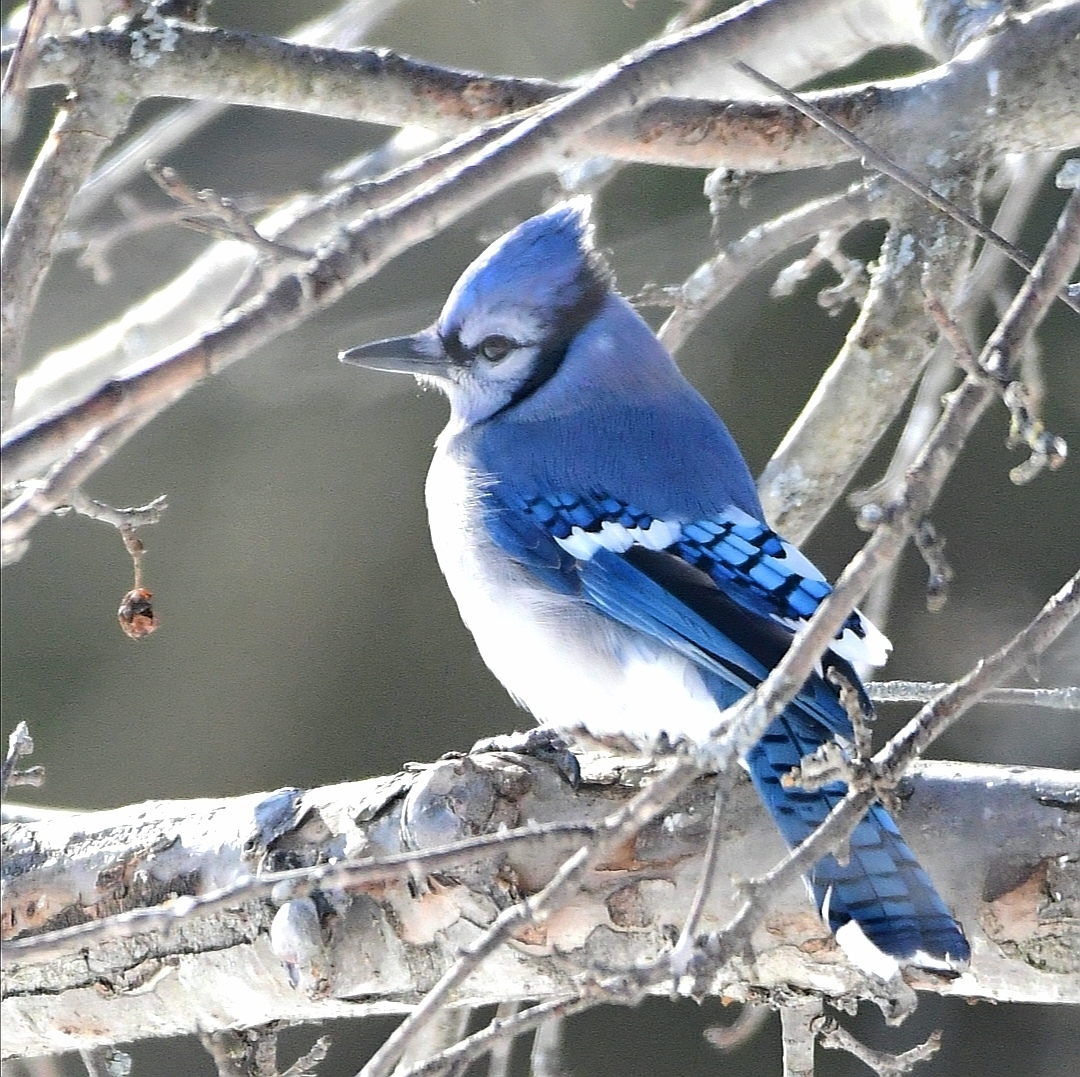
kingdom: Animalia
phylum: Chordata
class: Aves
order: Passeriformes
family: Corvidae
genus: Cyanocitta
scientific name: Cyanocitta cristata
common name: Blue jay
